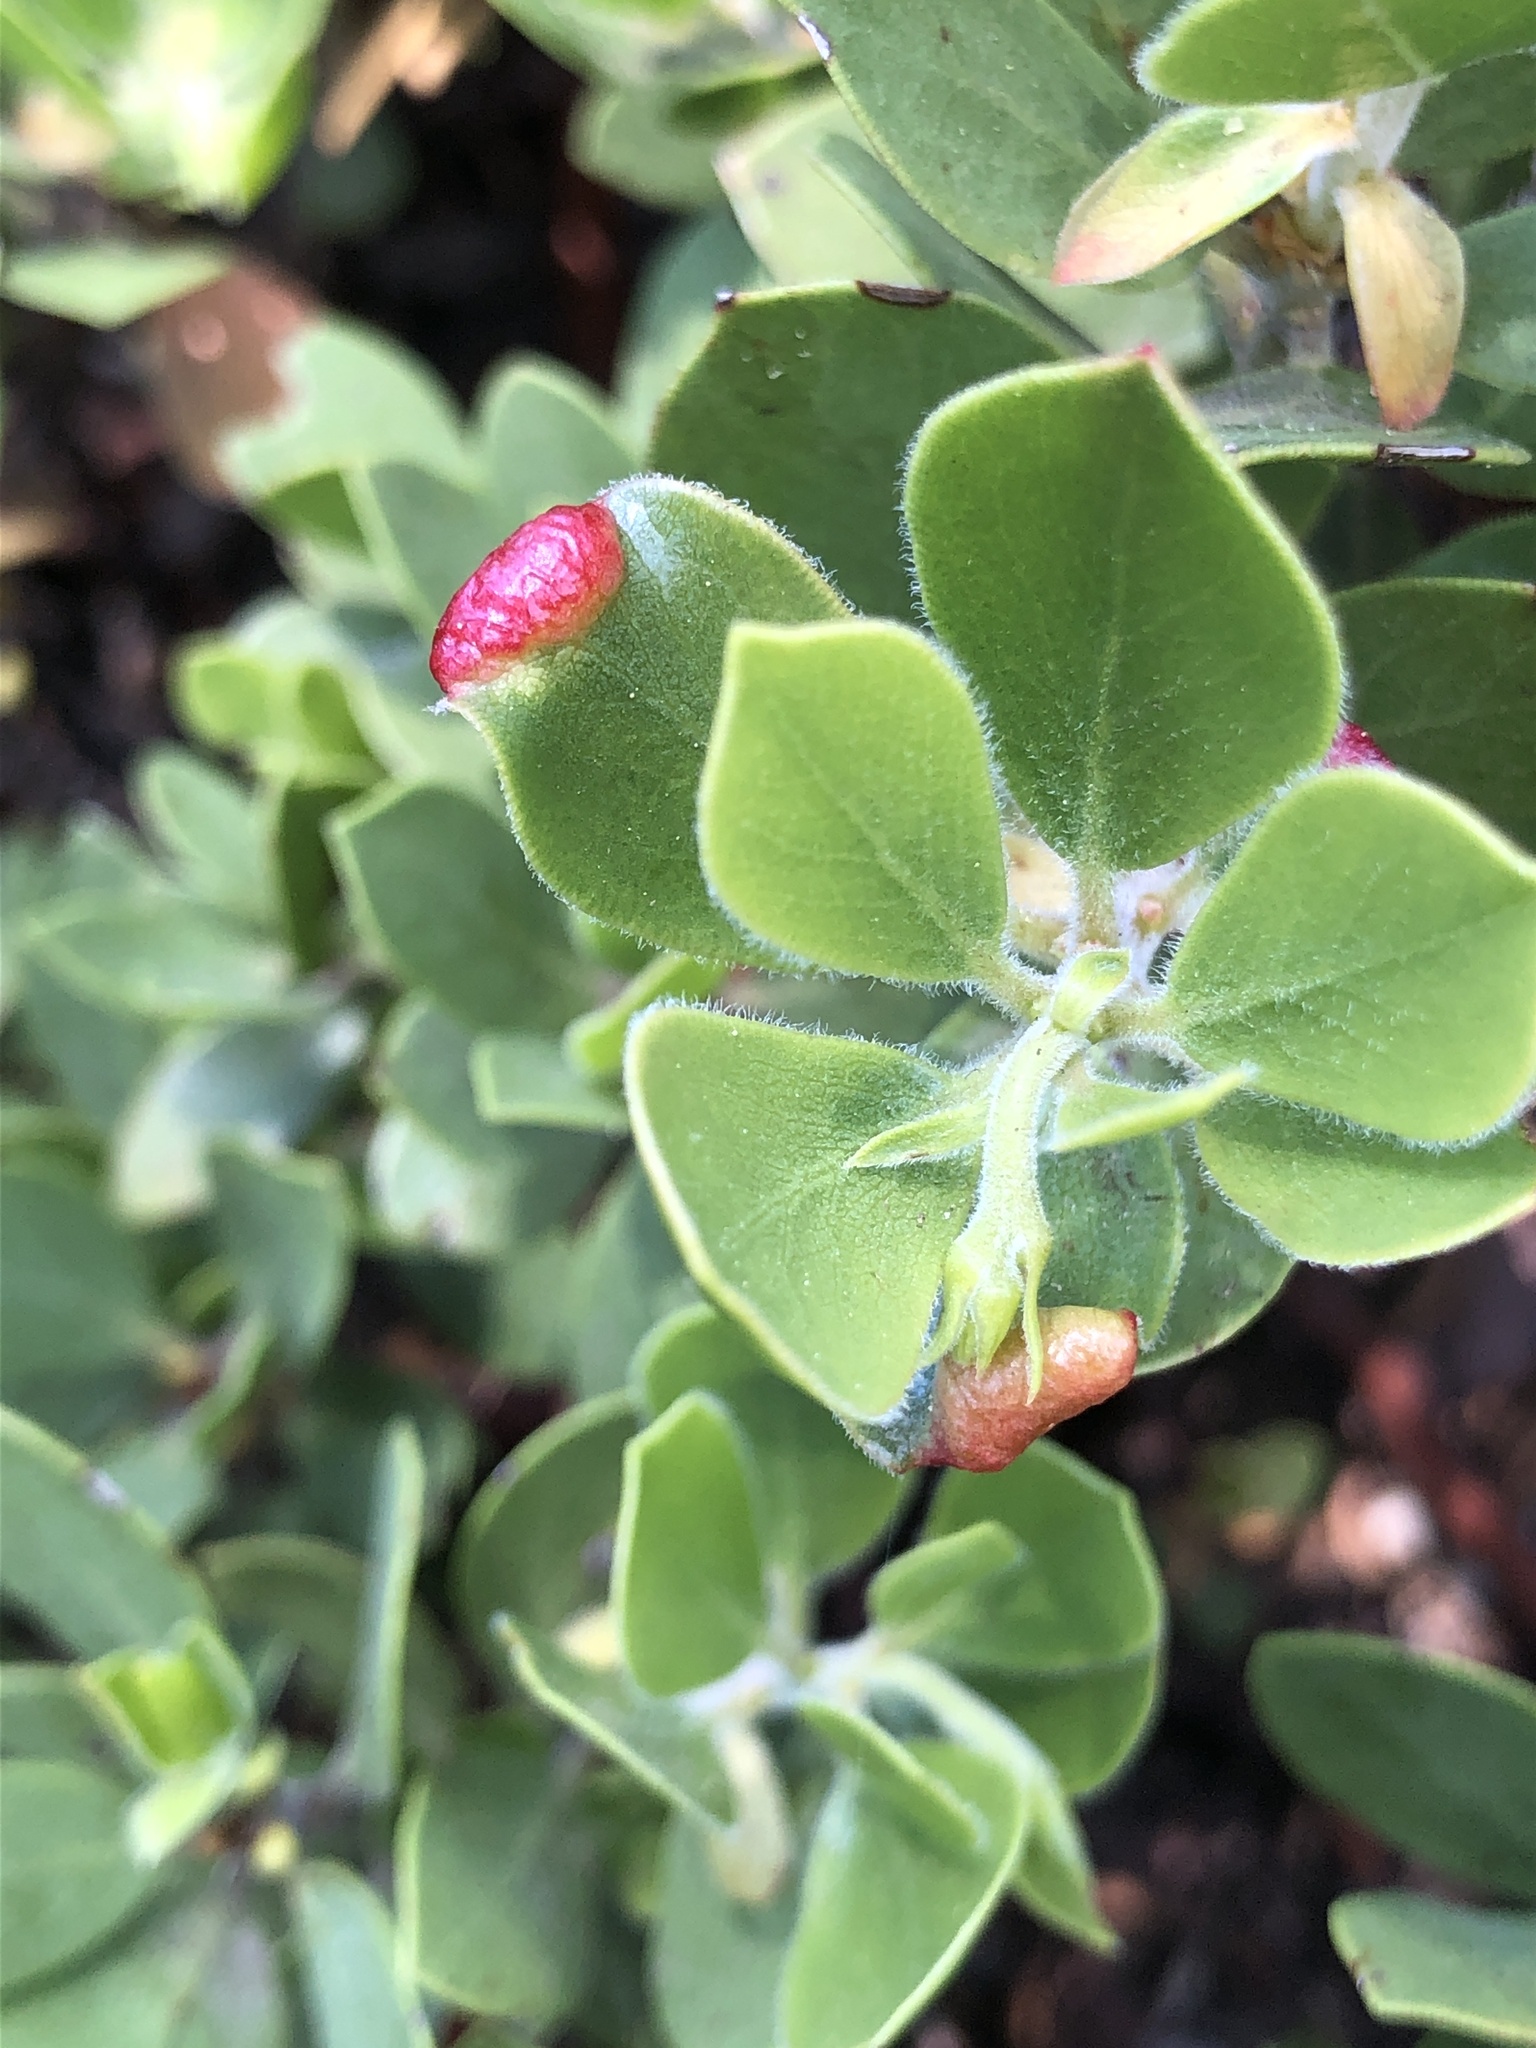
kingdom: Animalia
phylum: Arthropoda
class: Insecta
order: Hemiptera
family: Aphididae
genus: Tamalia
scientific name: Tamalia coweni
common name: Manzanita leafgall aphid
